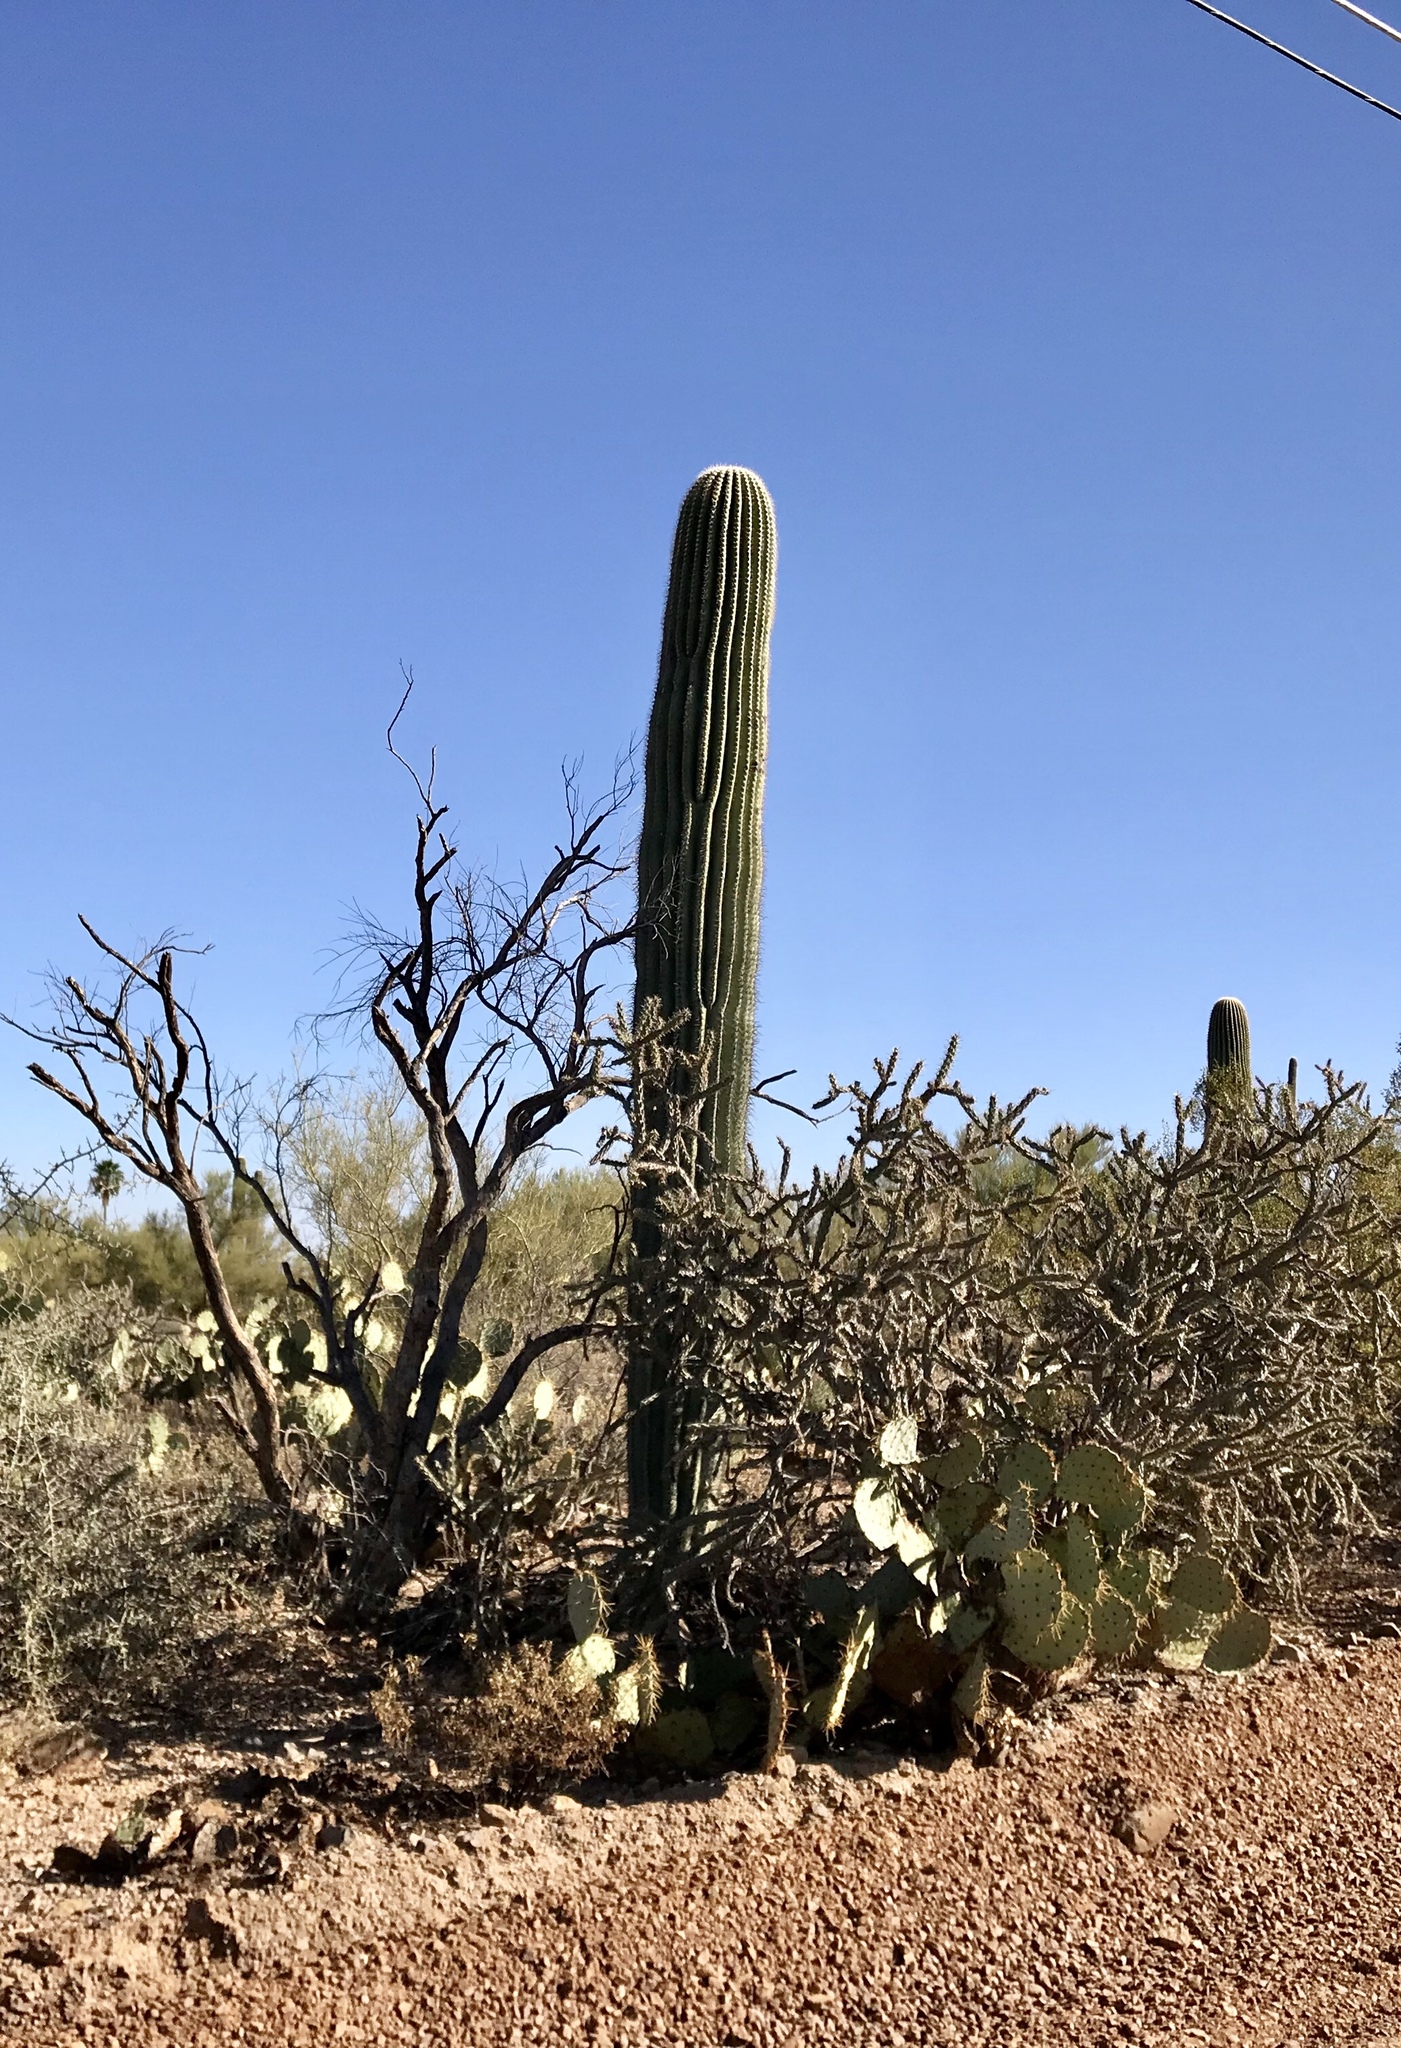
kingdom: Plantae
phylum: Tracheophyta
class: Magnoliopsida
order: Caryophyllales
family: Cactaceae
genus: Carnegiea
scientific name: Carnegiea gigantea
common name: Saguaro
